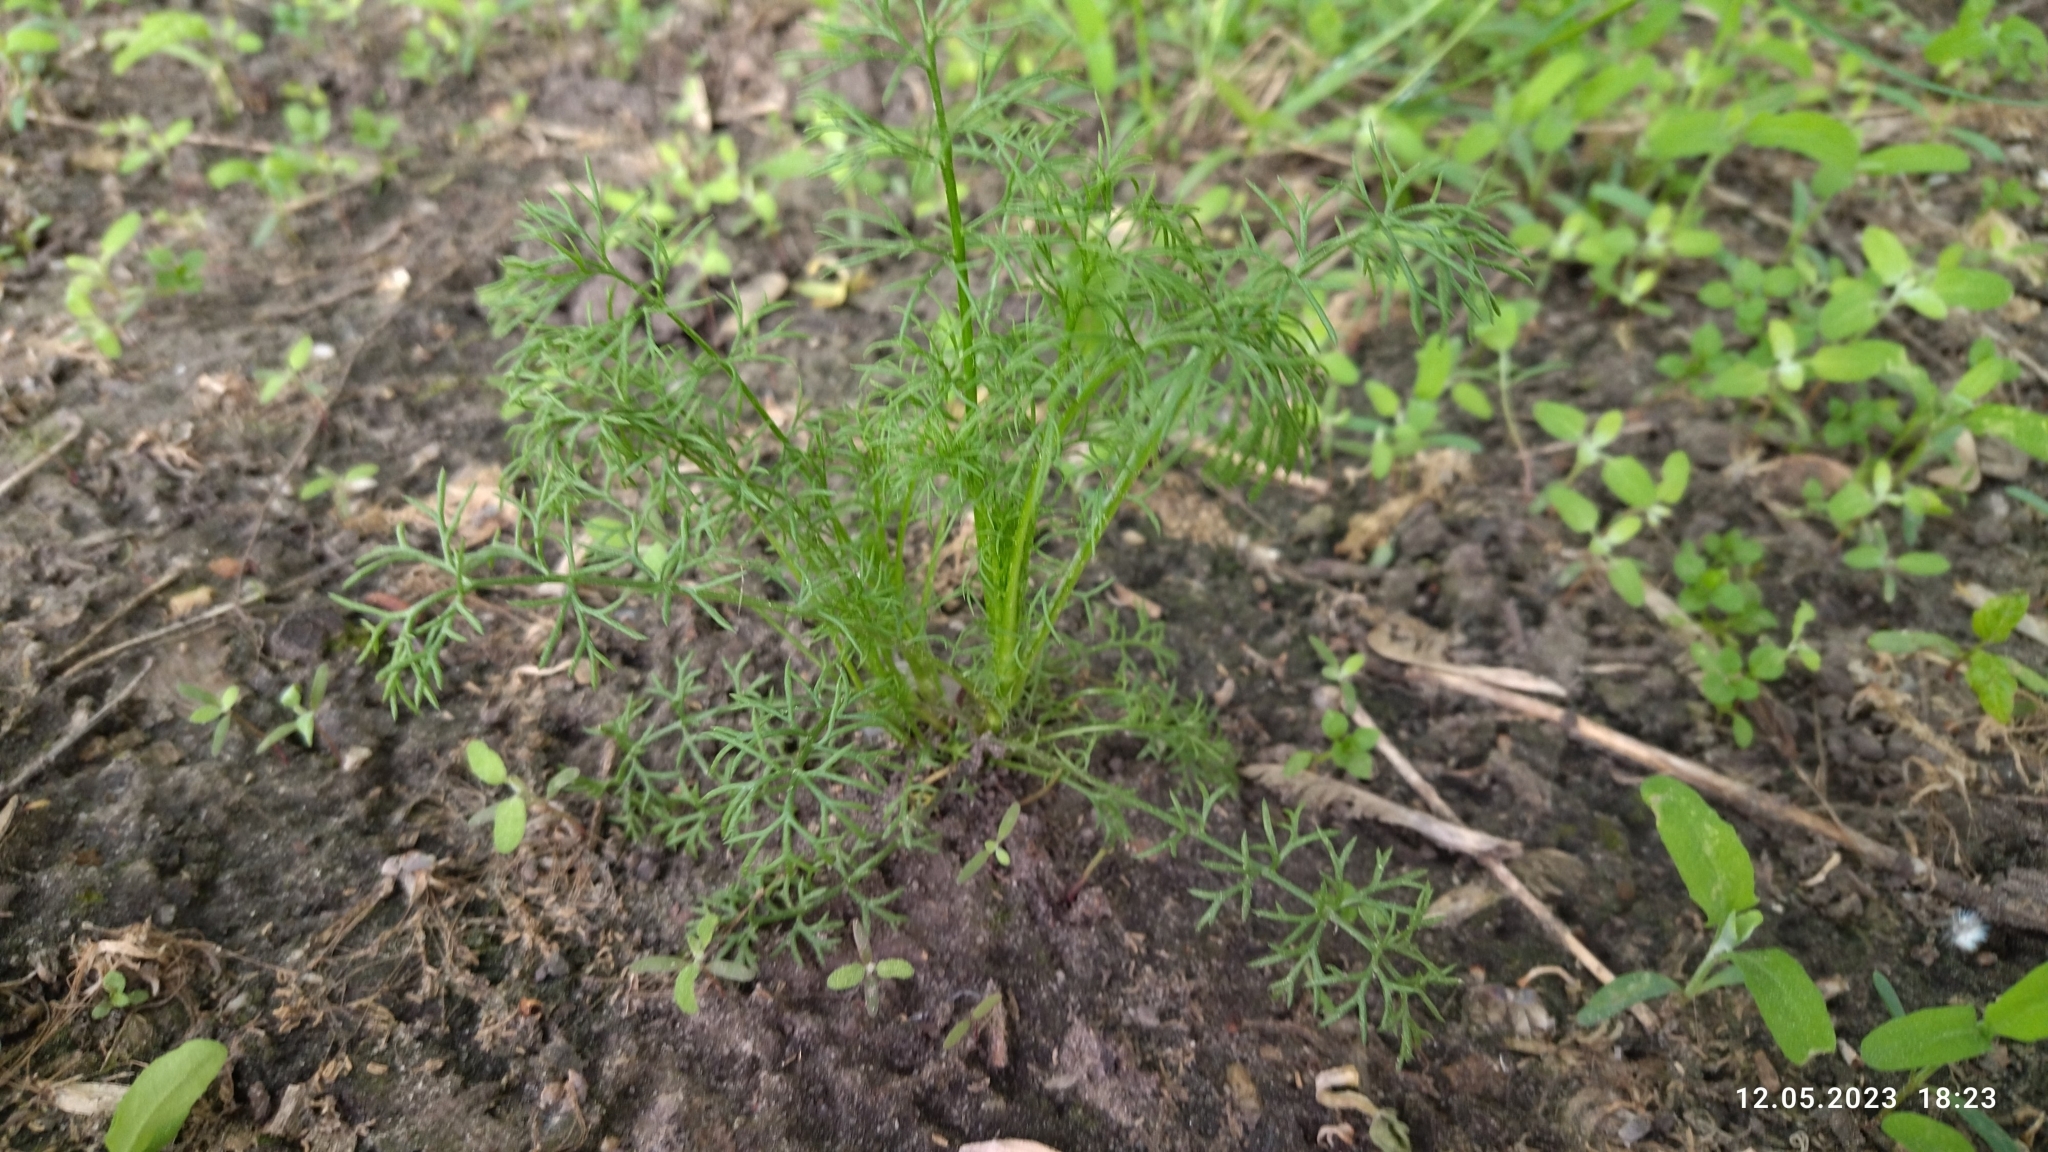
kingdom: Plantae
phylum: Tracheophyta
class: Magnoliopsida
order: Apiales
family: Apiaceae
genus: Anethum
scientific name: Anethum graveolens
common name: Dill
